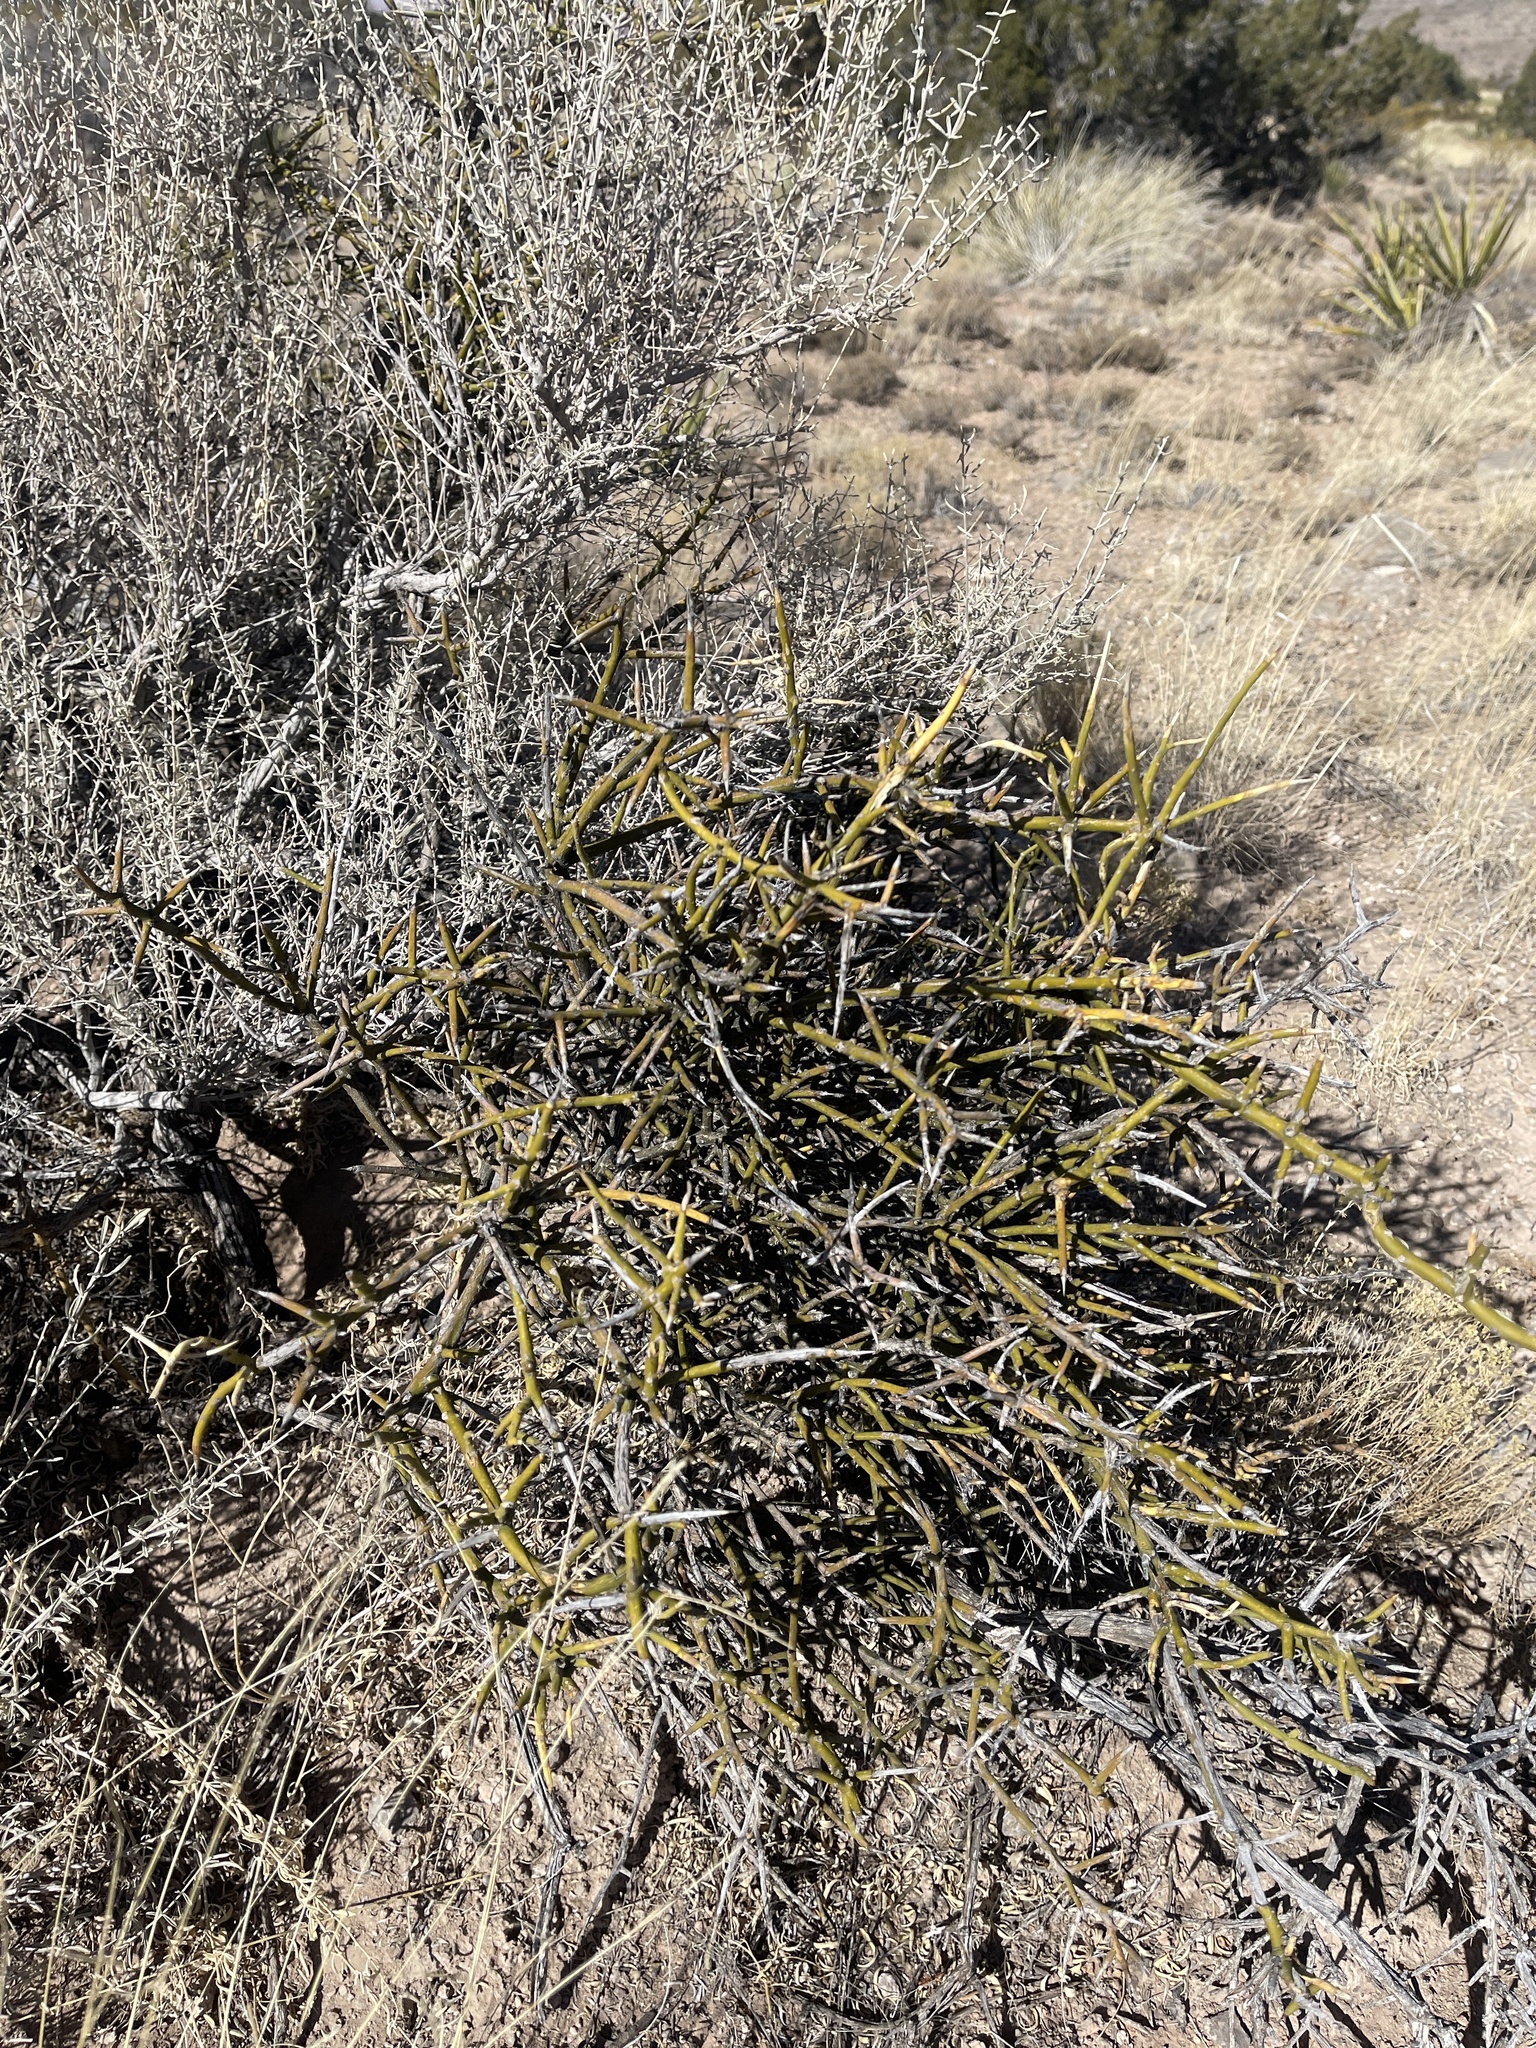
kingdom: Plantae
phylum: Tracheophyta
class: Magnoliopsida
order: Brassicales
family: Koeberliniaceae
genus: Koeberlinia
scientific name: Koeberlinia spinosa
